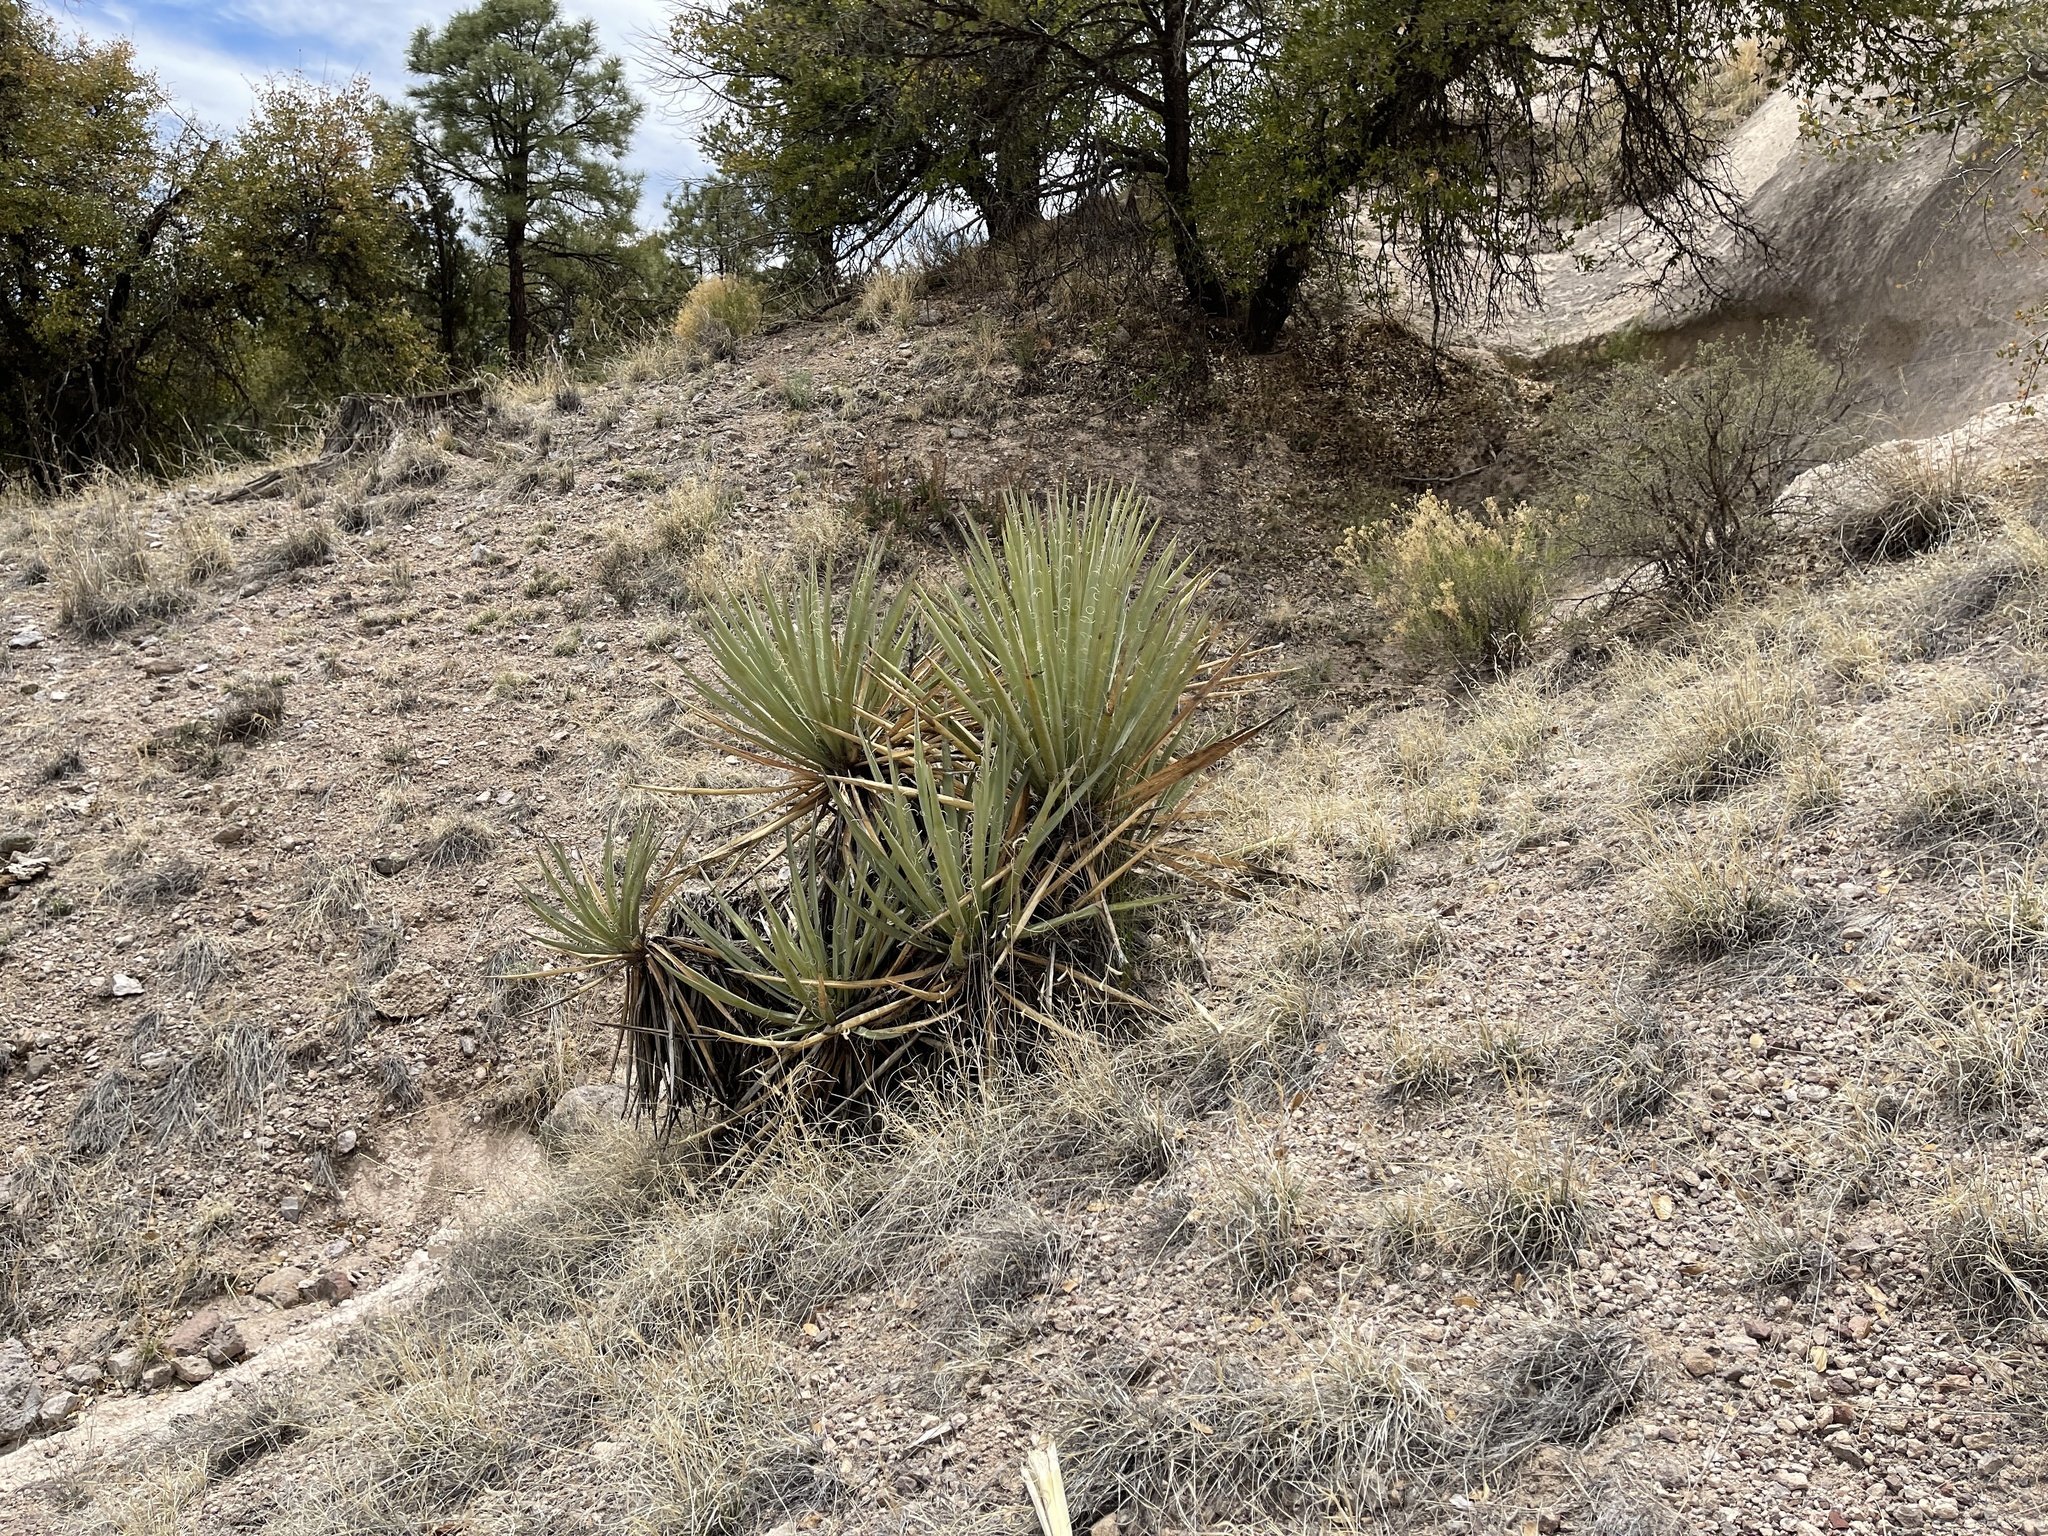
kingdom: Plantae
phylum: Tracheophyta
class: Liliopsida
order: Asparagales
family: Asparagaceae
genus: Yucca
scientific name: Yucca baccata
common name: Banana yucca
